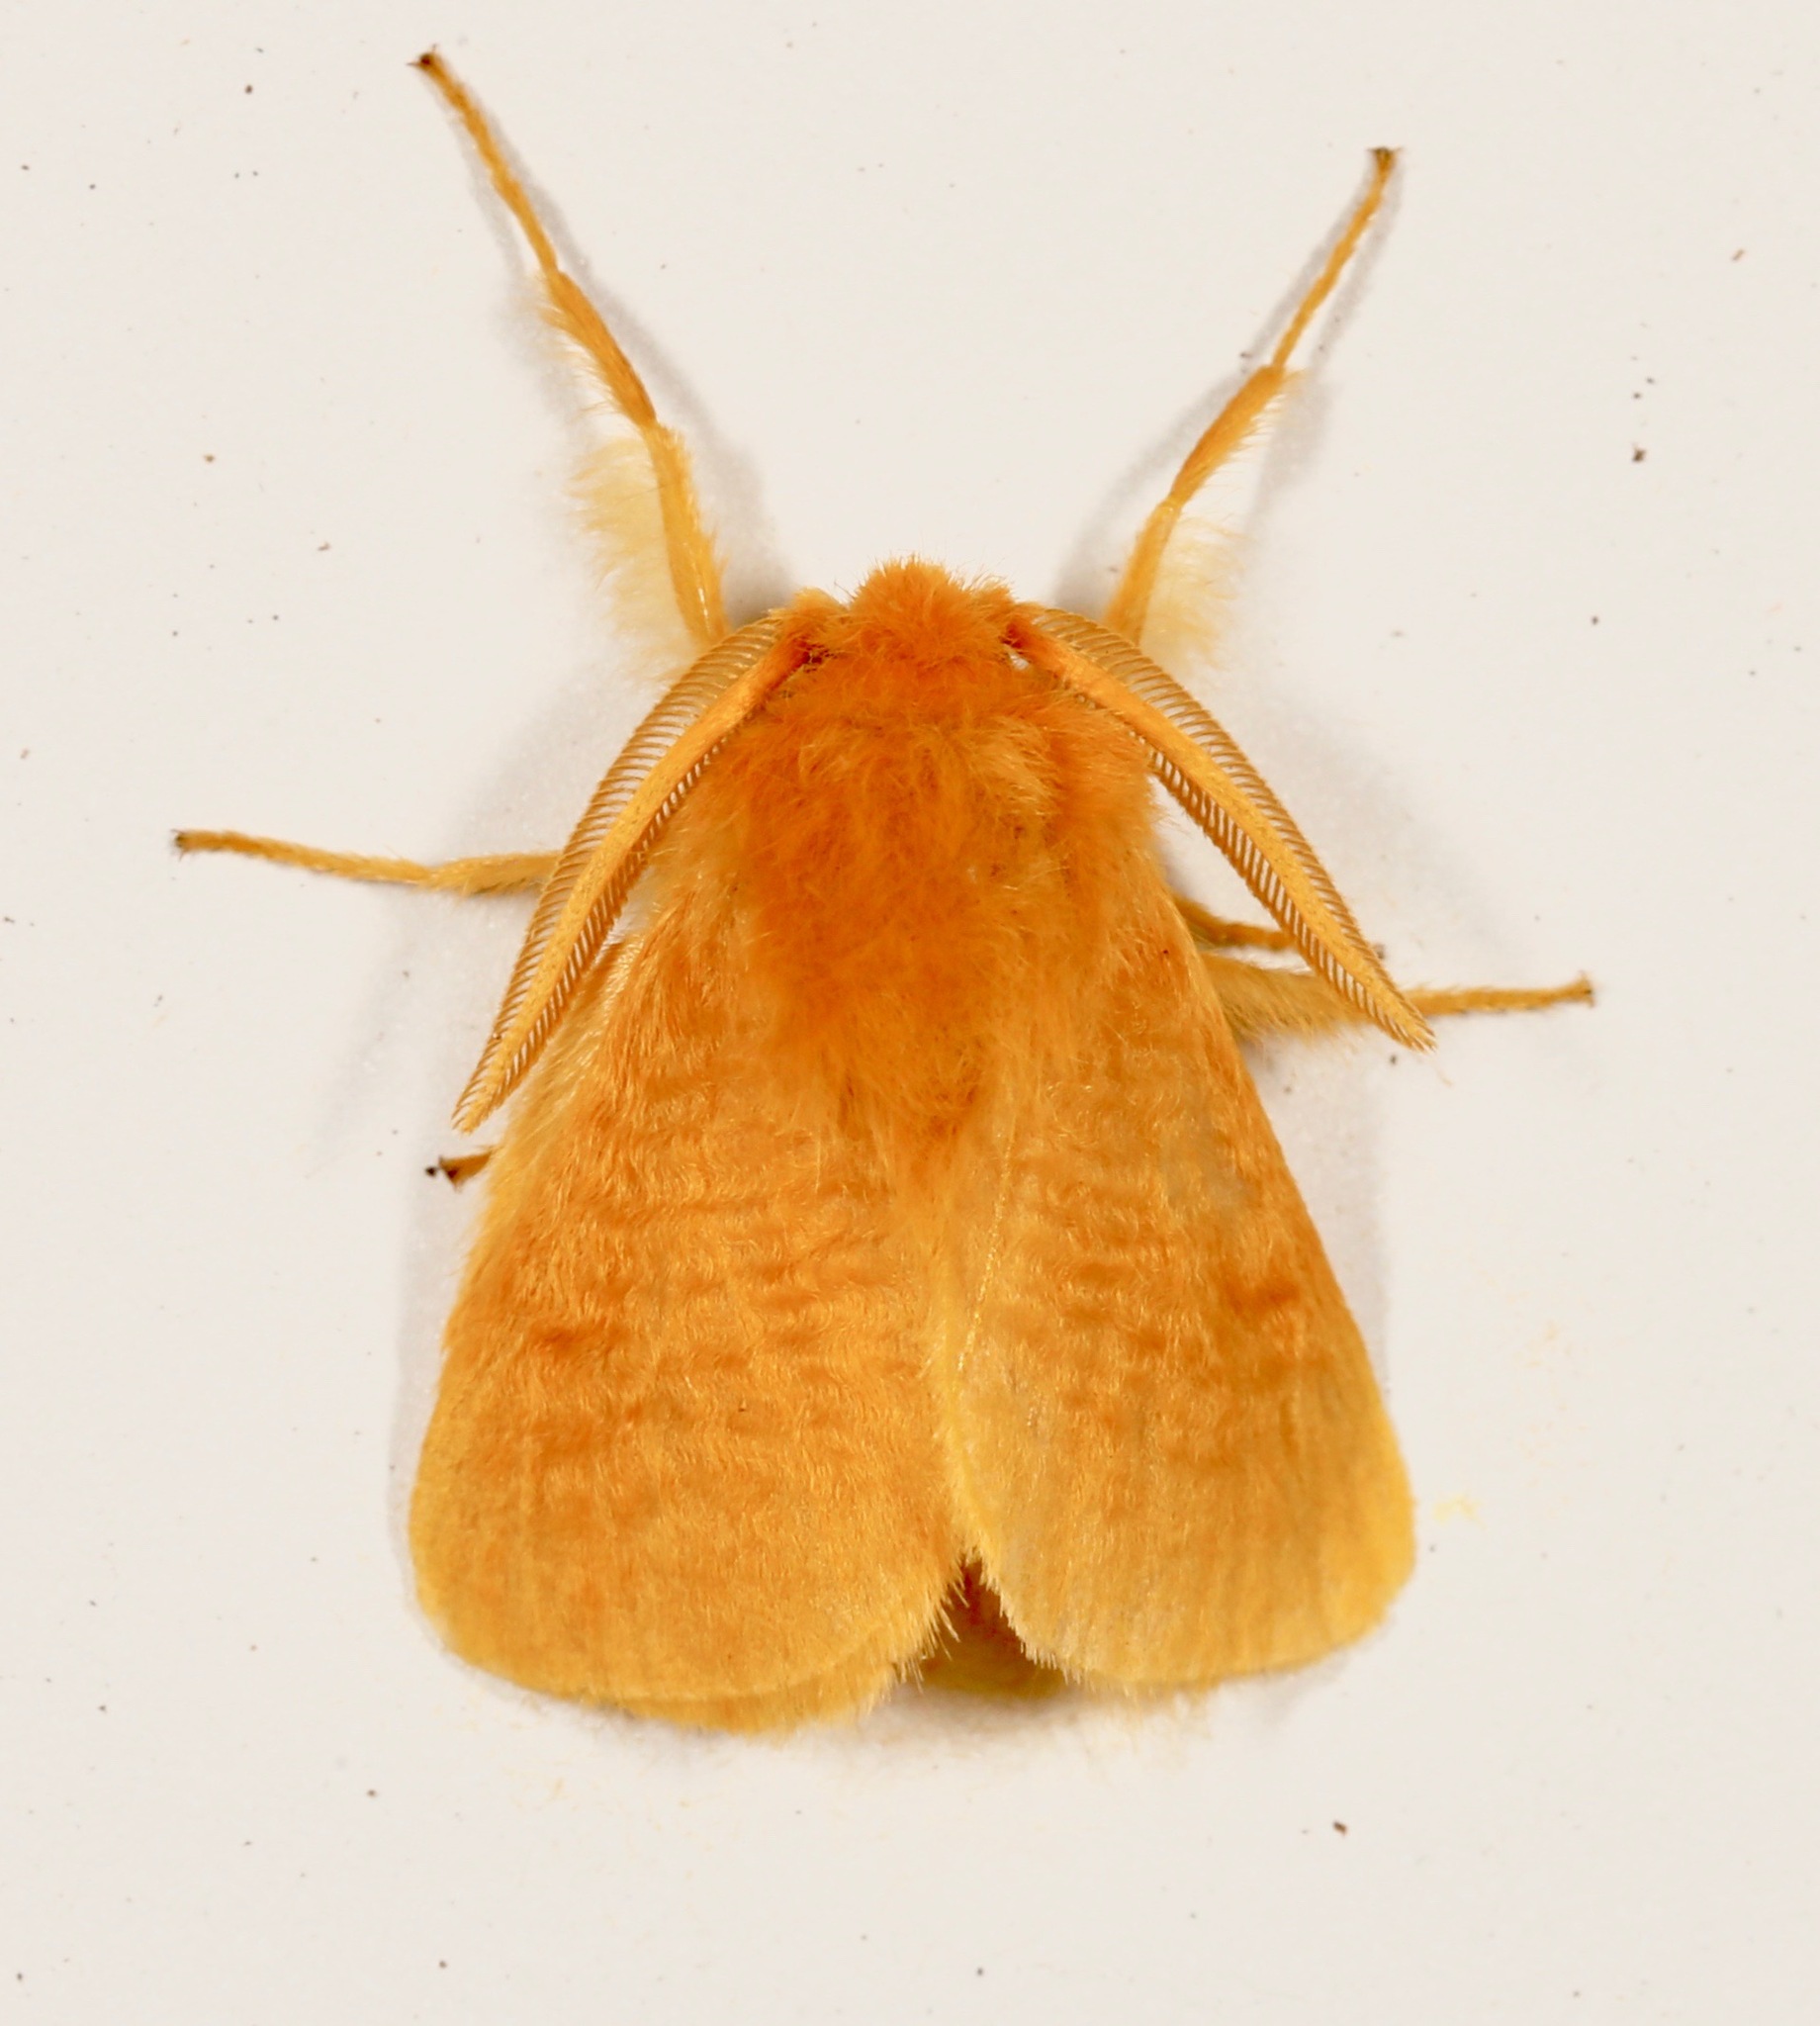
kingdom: Animalia
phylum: Arthropoda
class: Insecta
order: Lepidoptera
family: Megalopygidae
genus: Megalopyge
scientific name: Megalopyge pixidifera
